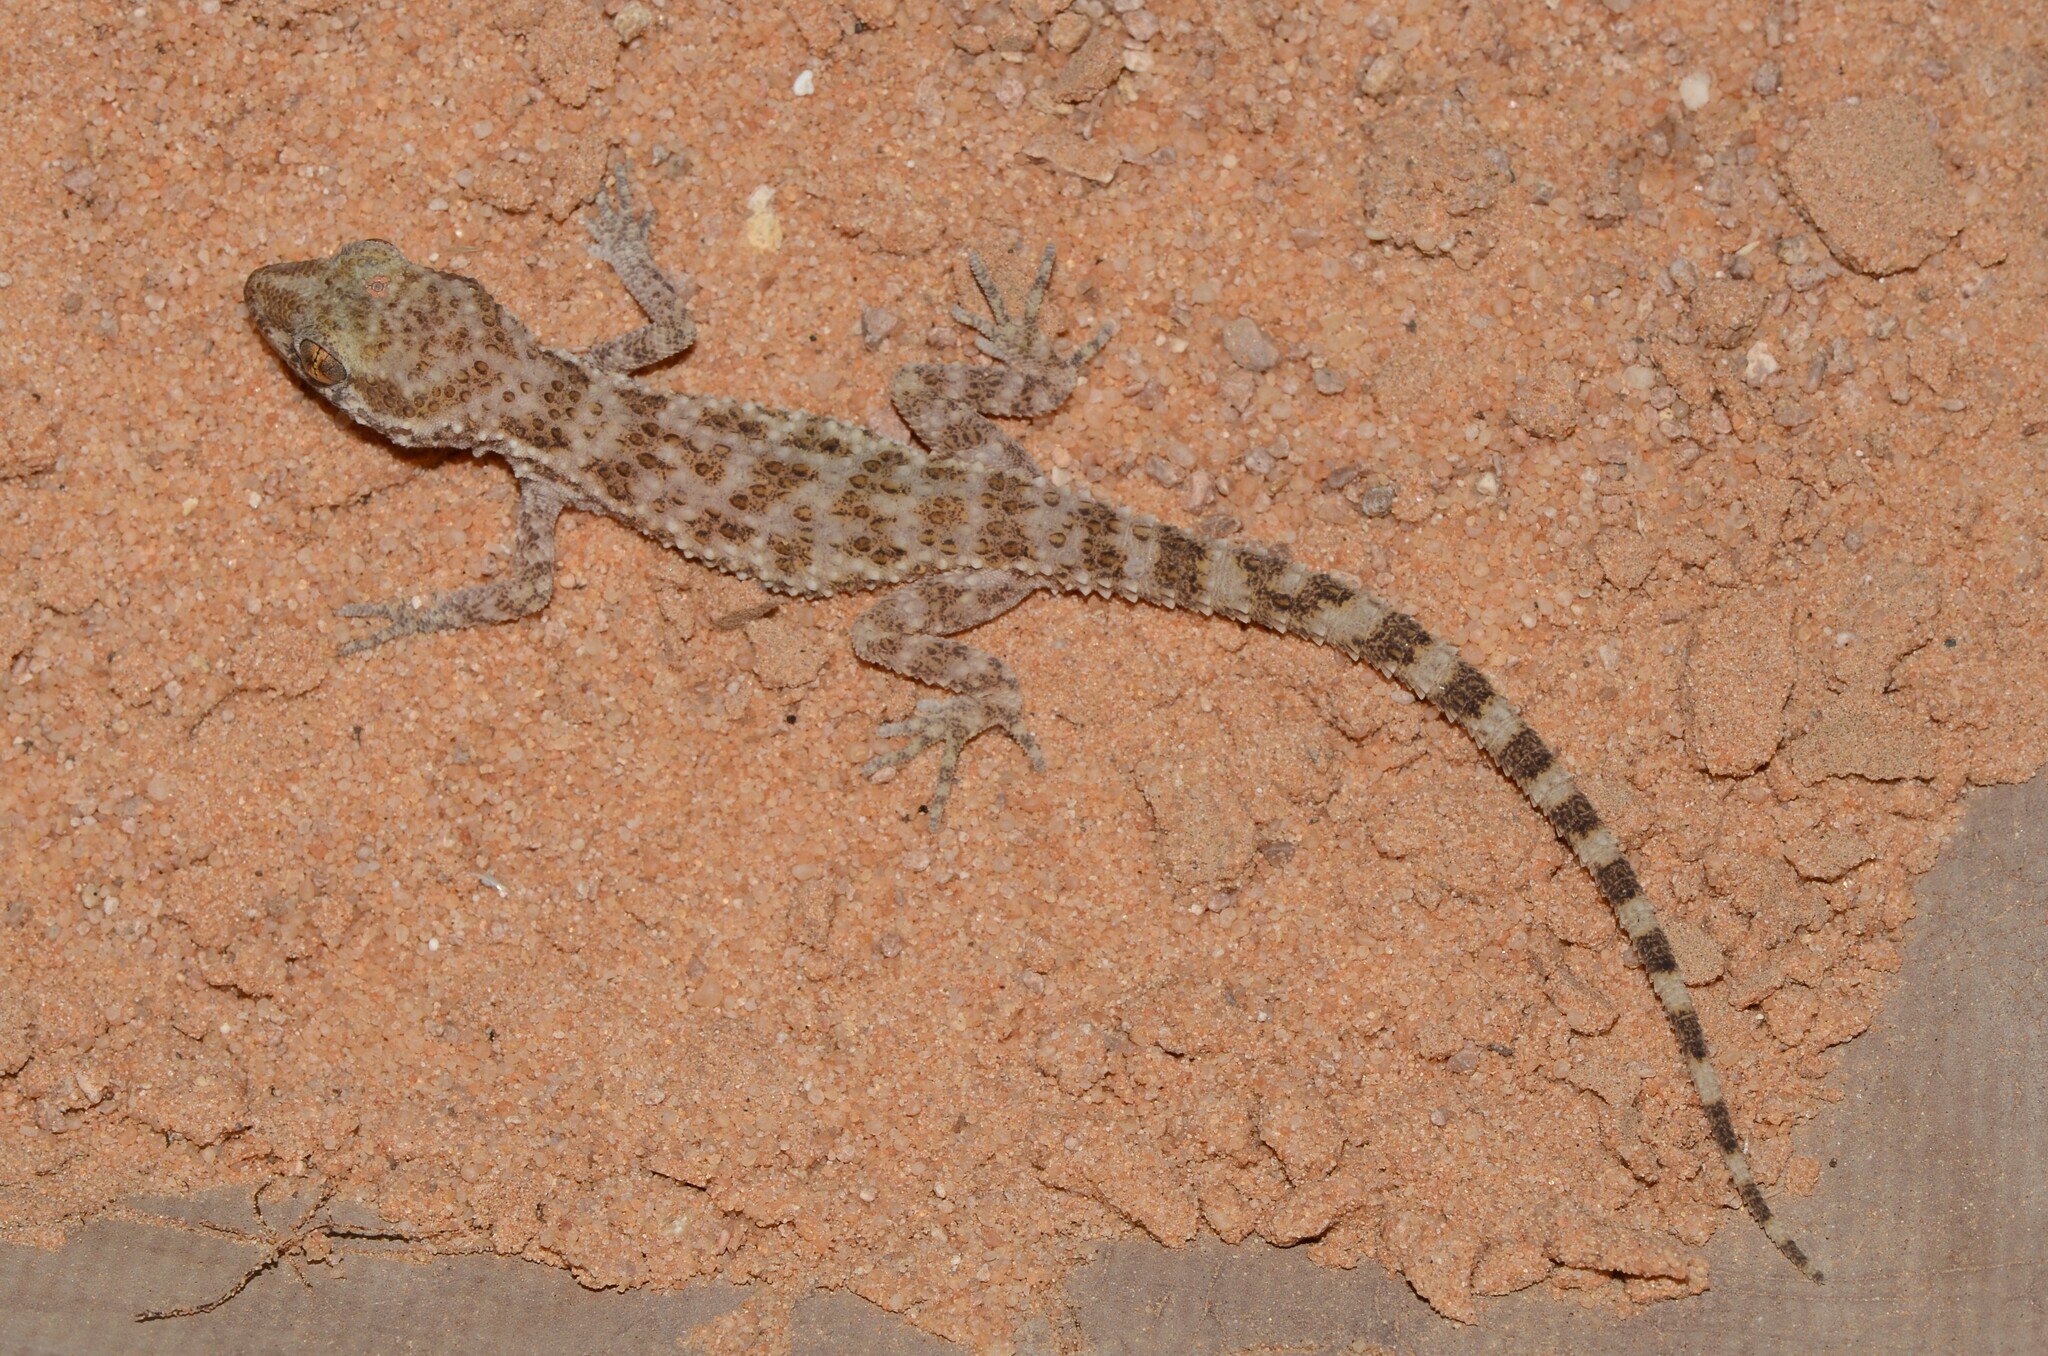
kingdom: Animalia
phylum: Chordata
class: Squamata
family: Gekkonidae
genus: Bunopus
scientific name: Bunopus tuberculatus
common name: Southern tuberculated gecko
